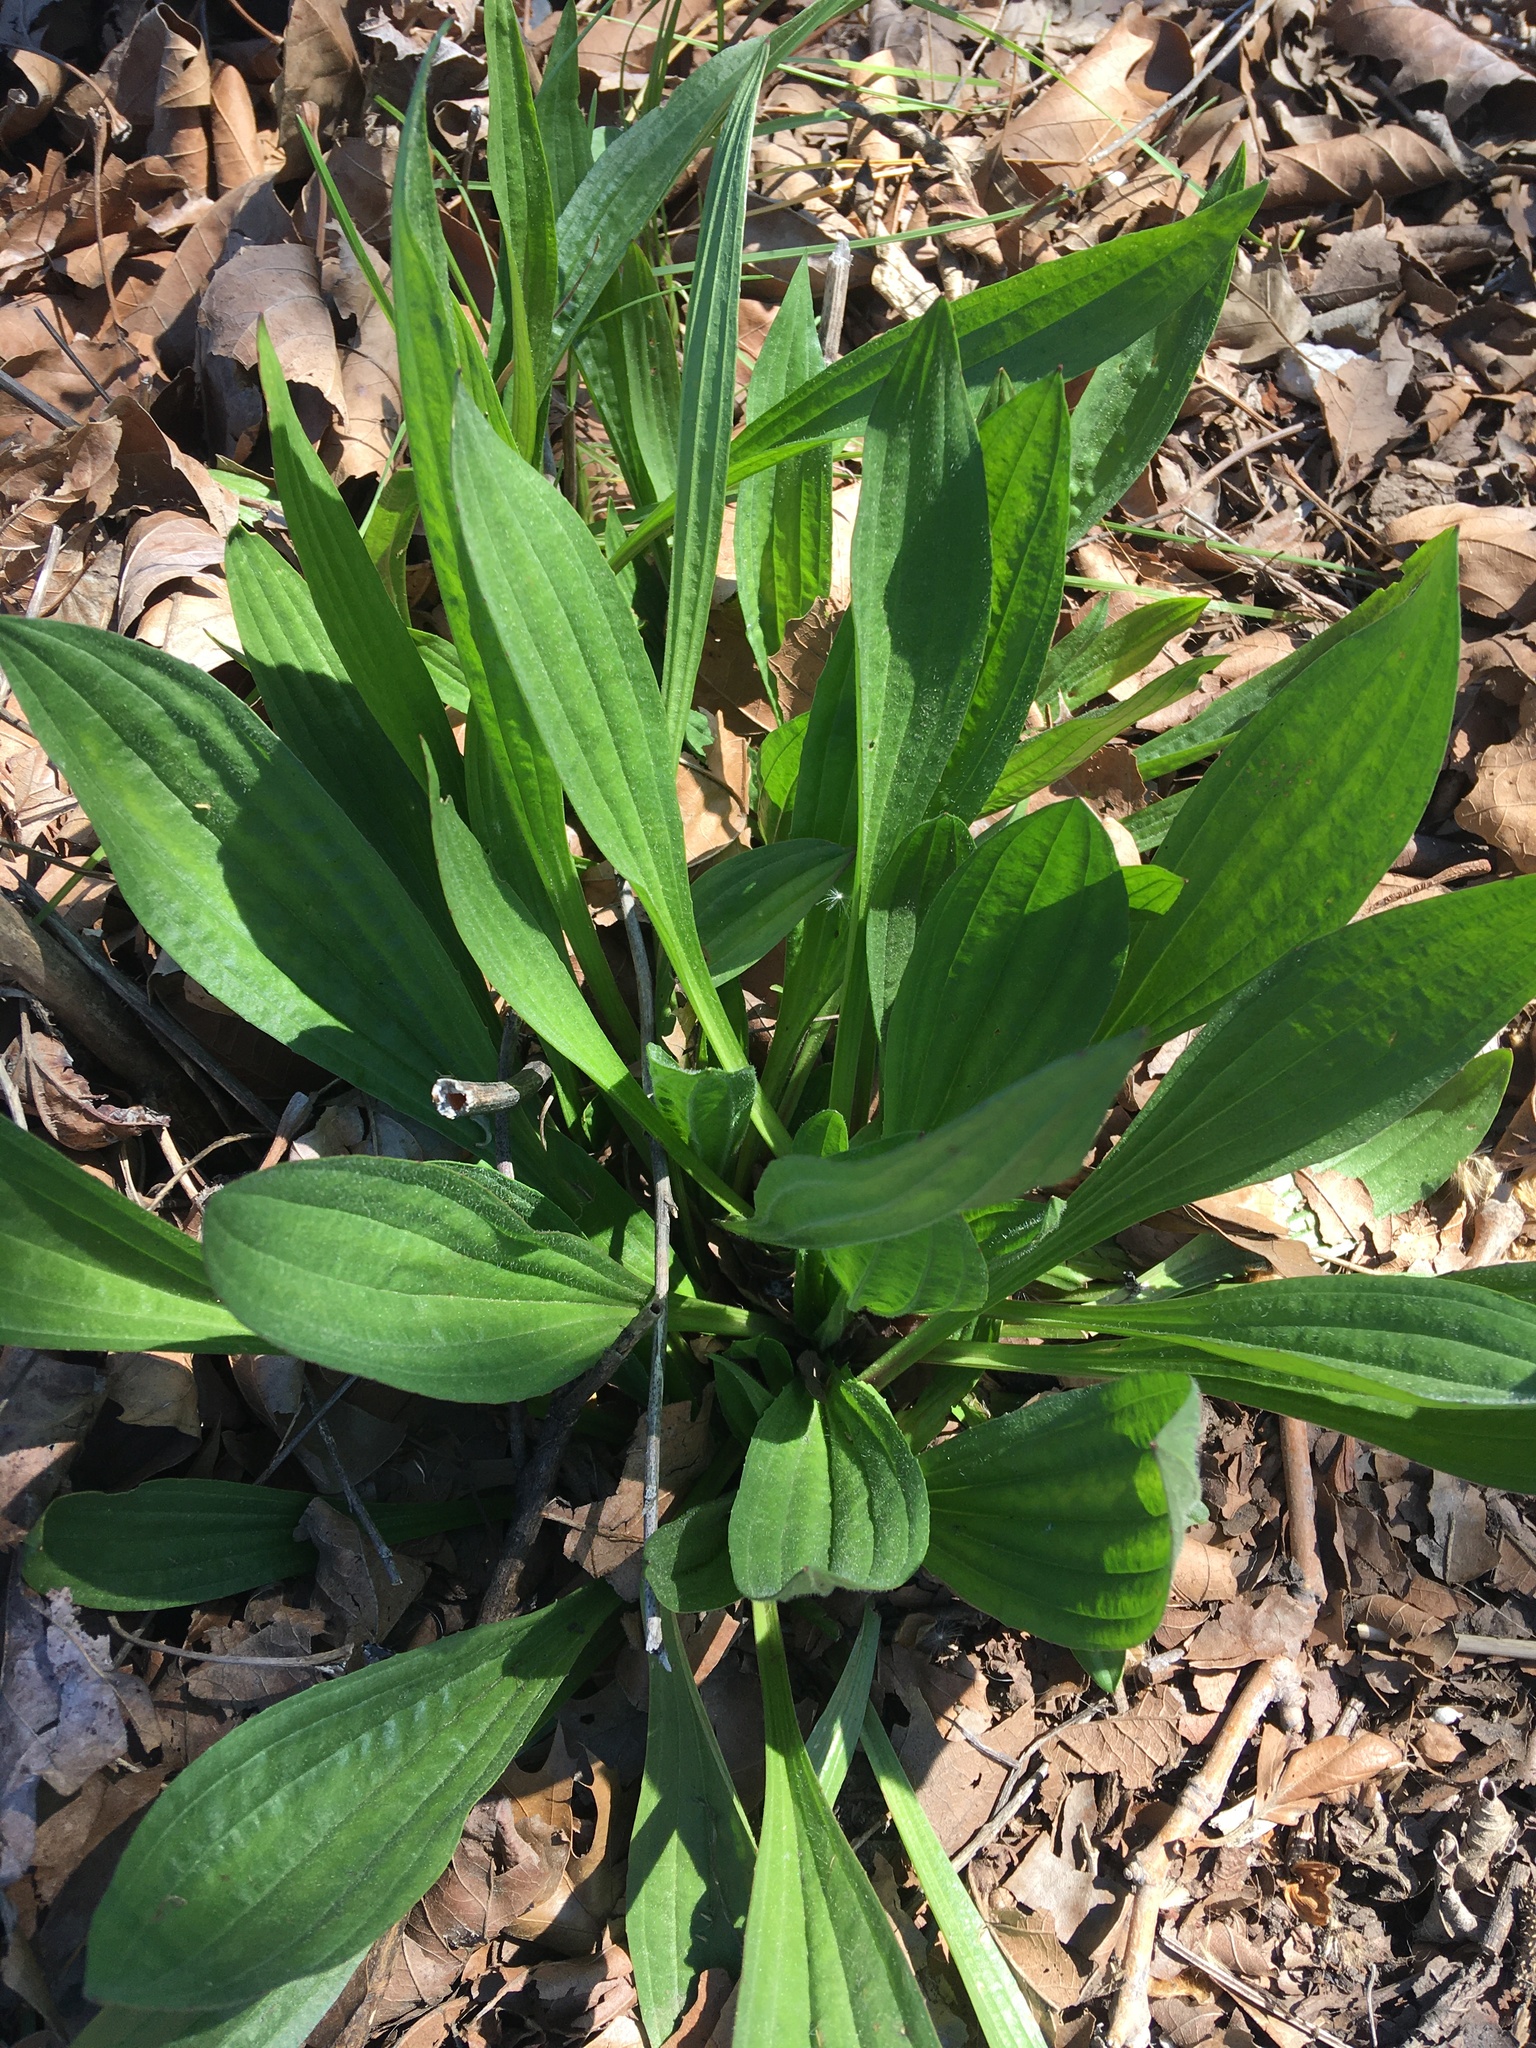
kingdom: Plantae
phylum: Tracheophyta
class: Magnoliopsida
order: Lamiales
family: Plantaginaceae
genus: Plantago
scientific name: Plantago lanceolata
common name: Ribwort plantain
